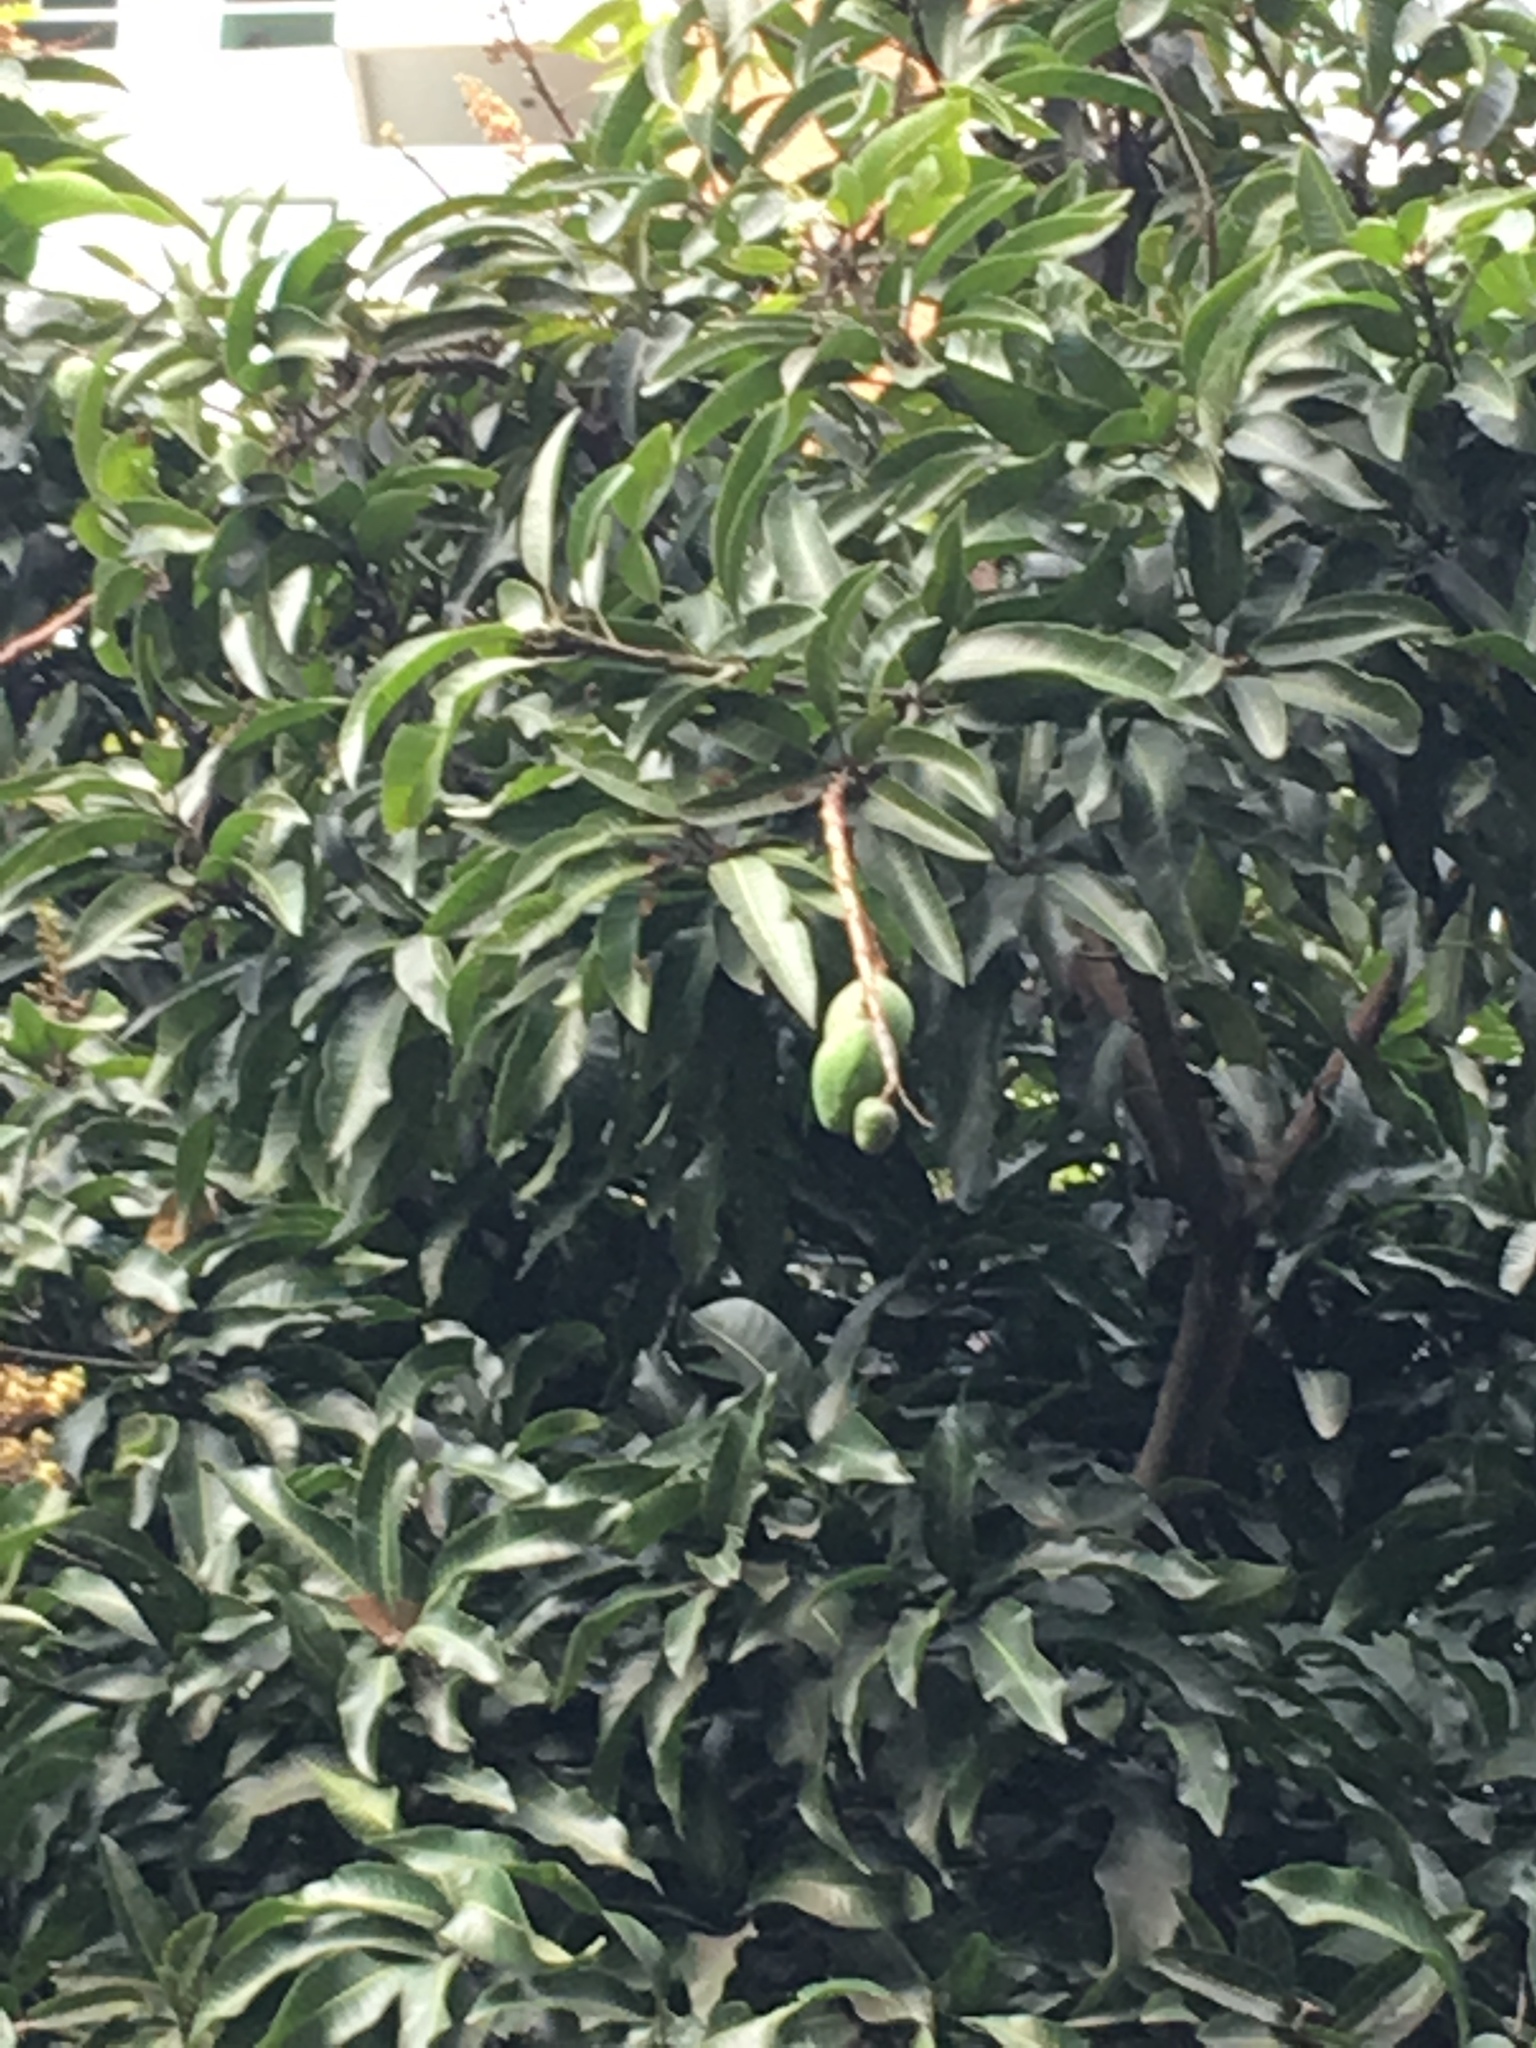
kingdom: Plantae
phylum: Tracheophyta
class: Magnoliopsida
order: Sapindales
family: Anacardiaceae
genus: Mangifera
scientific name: Mangifera indica
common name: Mango
